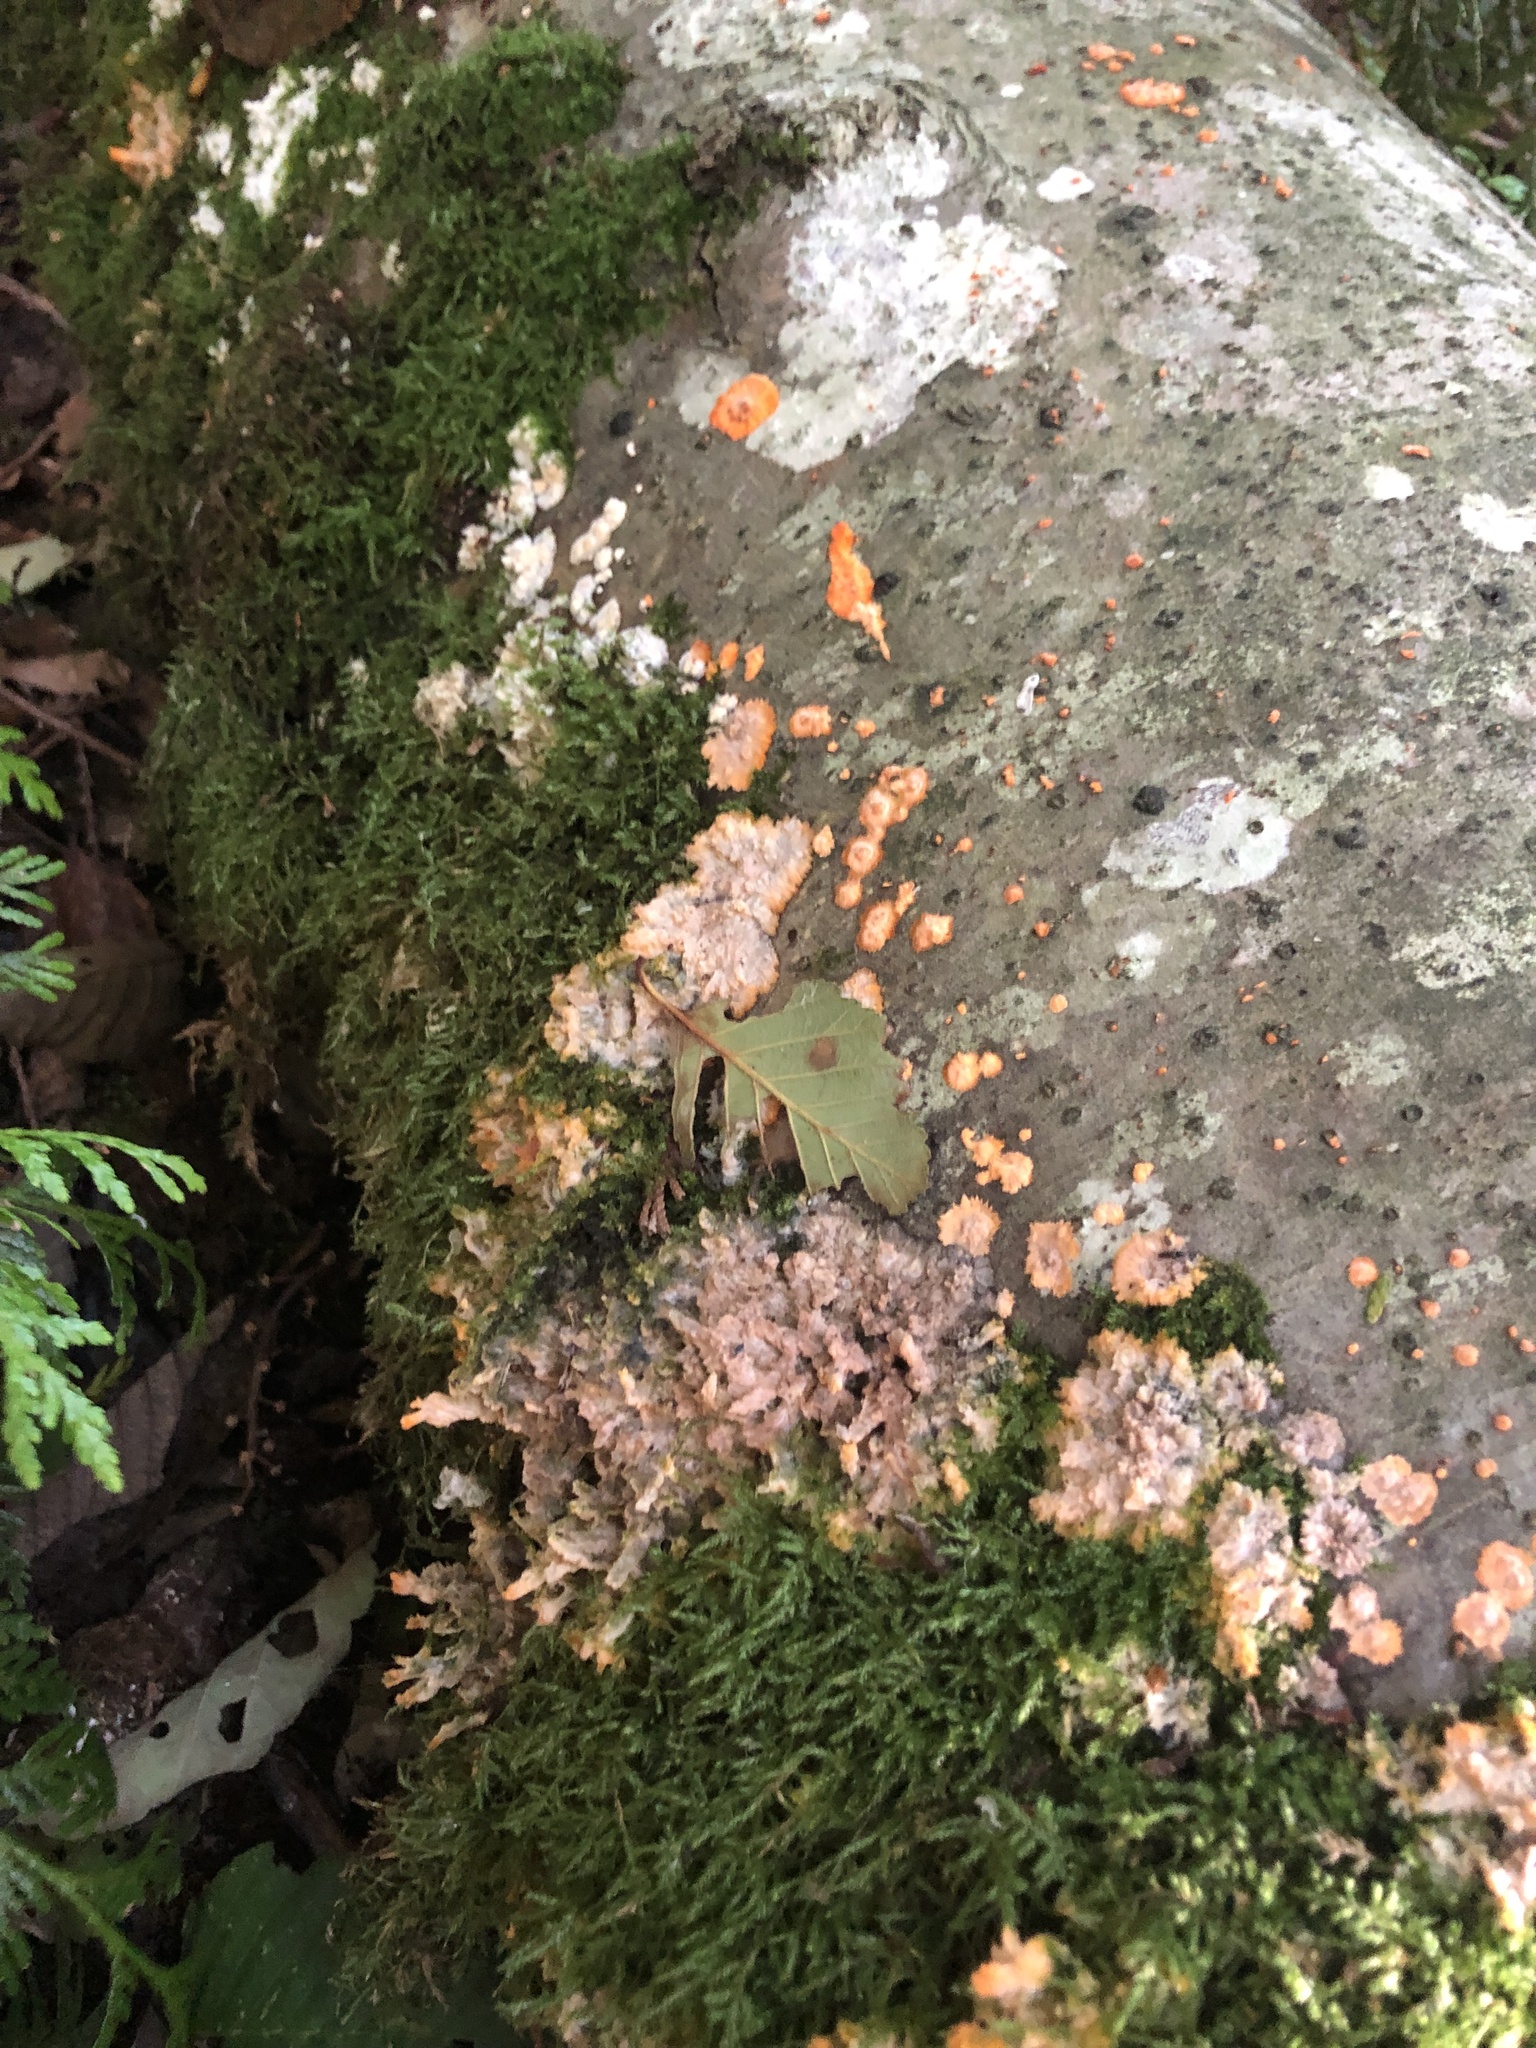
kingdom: Fungi
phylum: Basidiomycota
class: Agaricomycetes
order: Polyporales
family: Meruliaceae
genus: Phlebia
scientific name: Phlebia radiata
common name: Wrinkled crust
